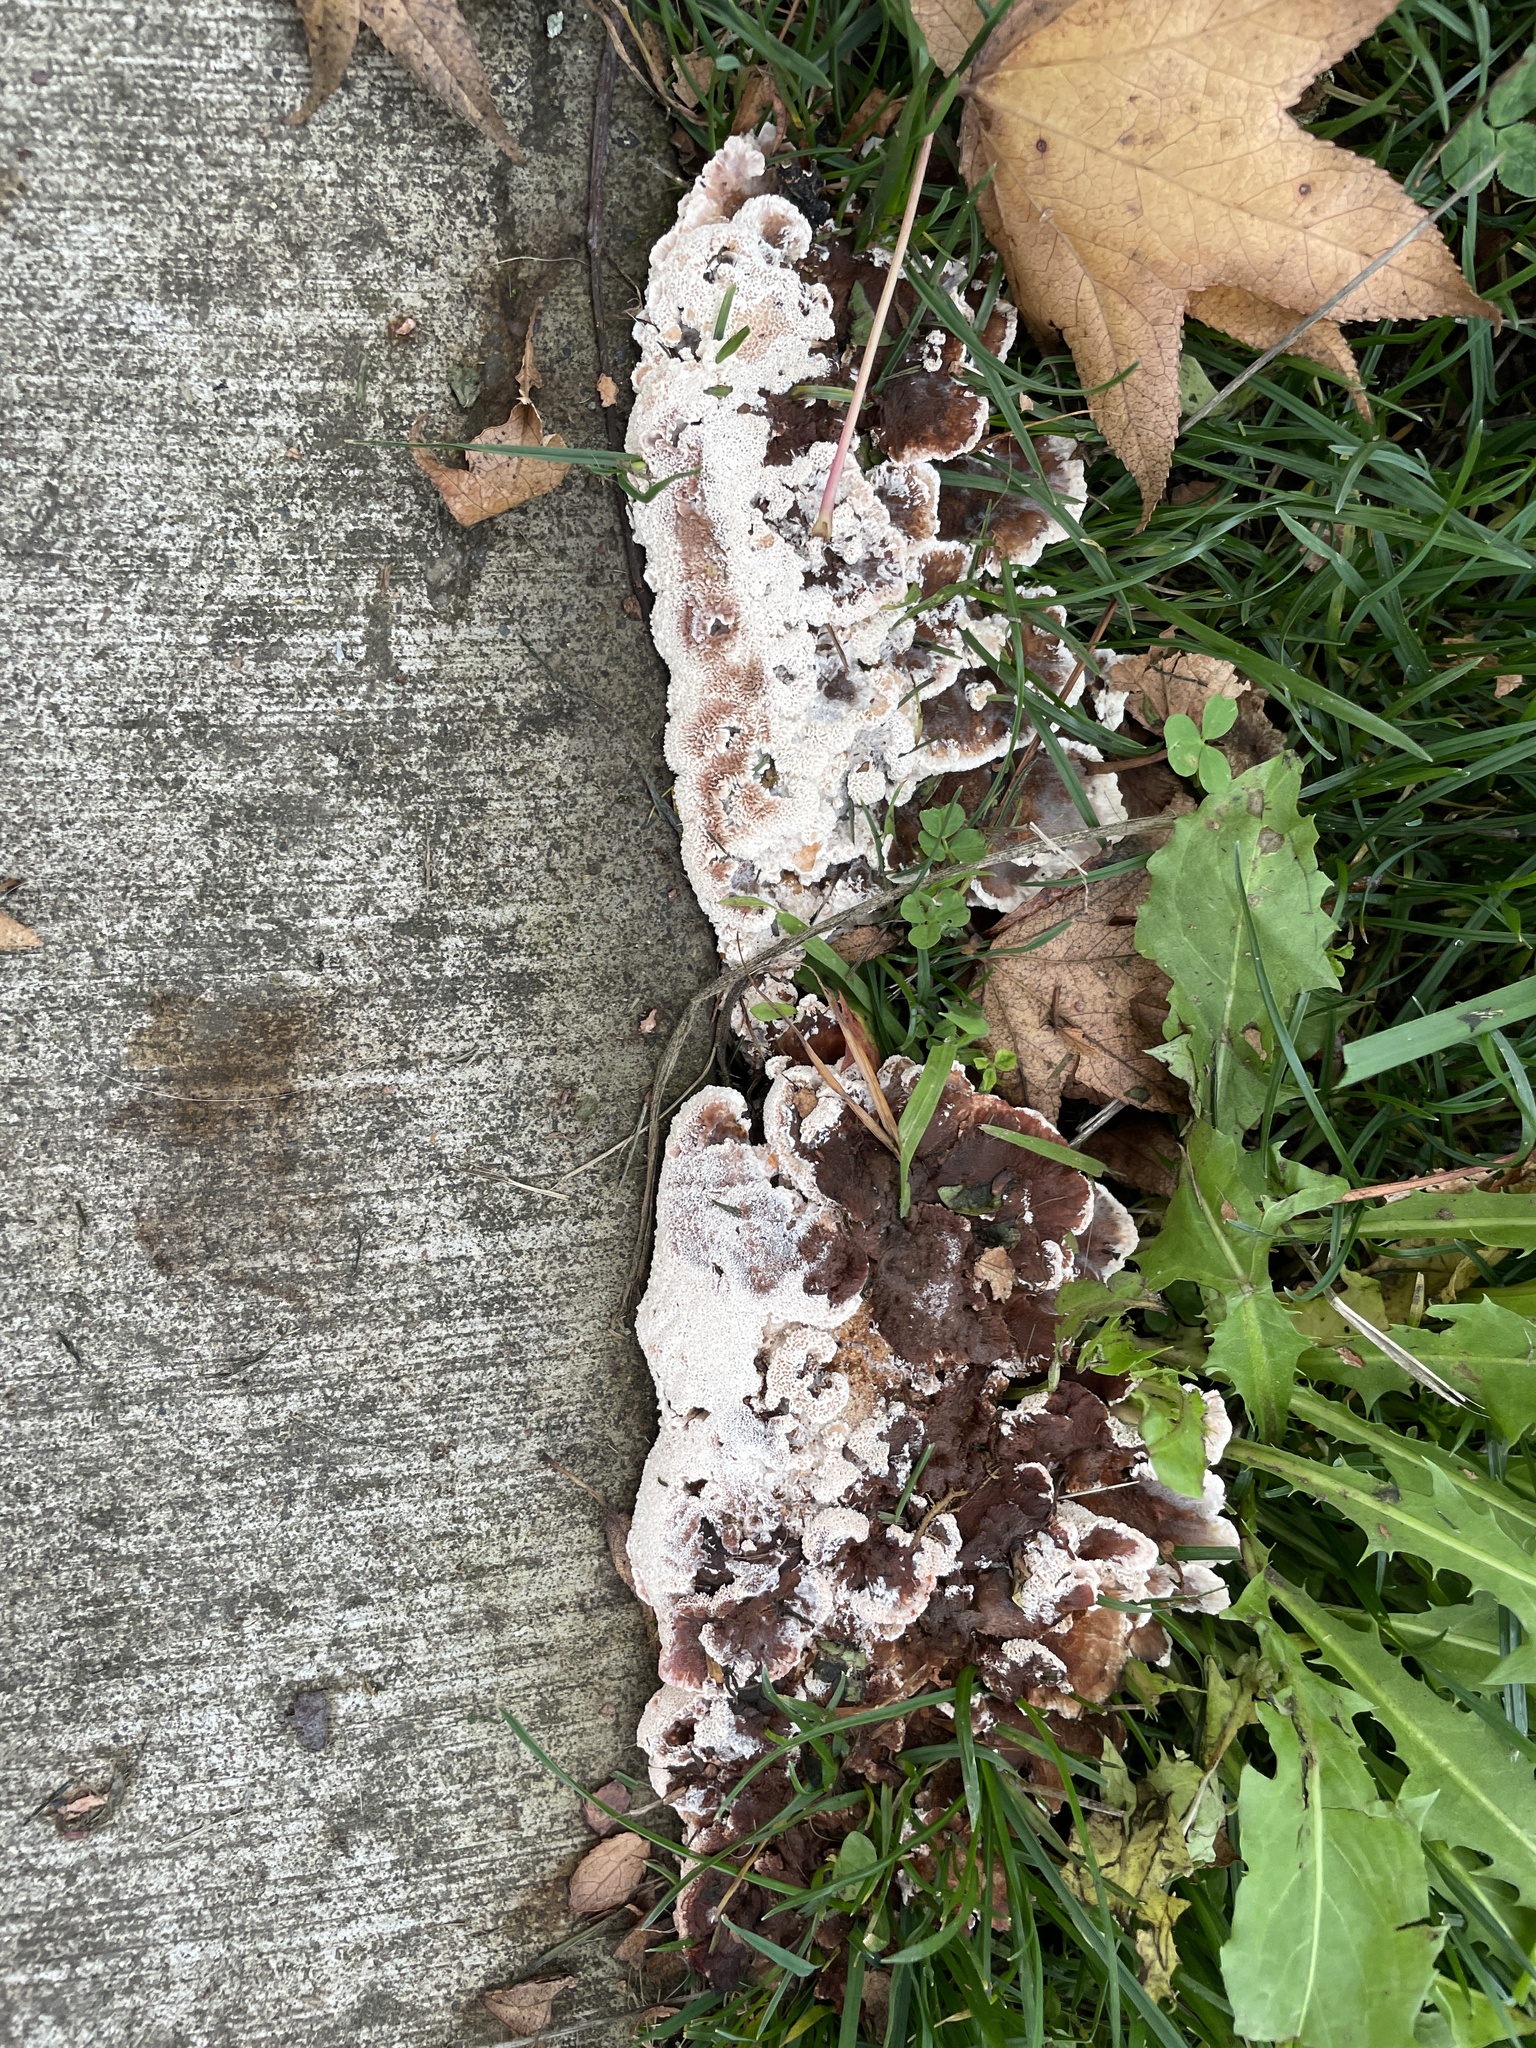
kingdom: Fungi
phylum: Basidiomycota
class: Agaricomycetes
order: Polyporales
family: Podoscyphaceae
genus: Abortiporus
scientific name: Abortiporus biennis
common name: Blushing rosette
